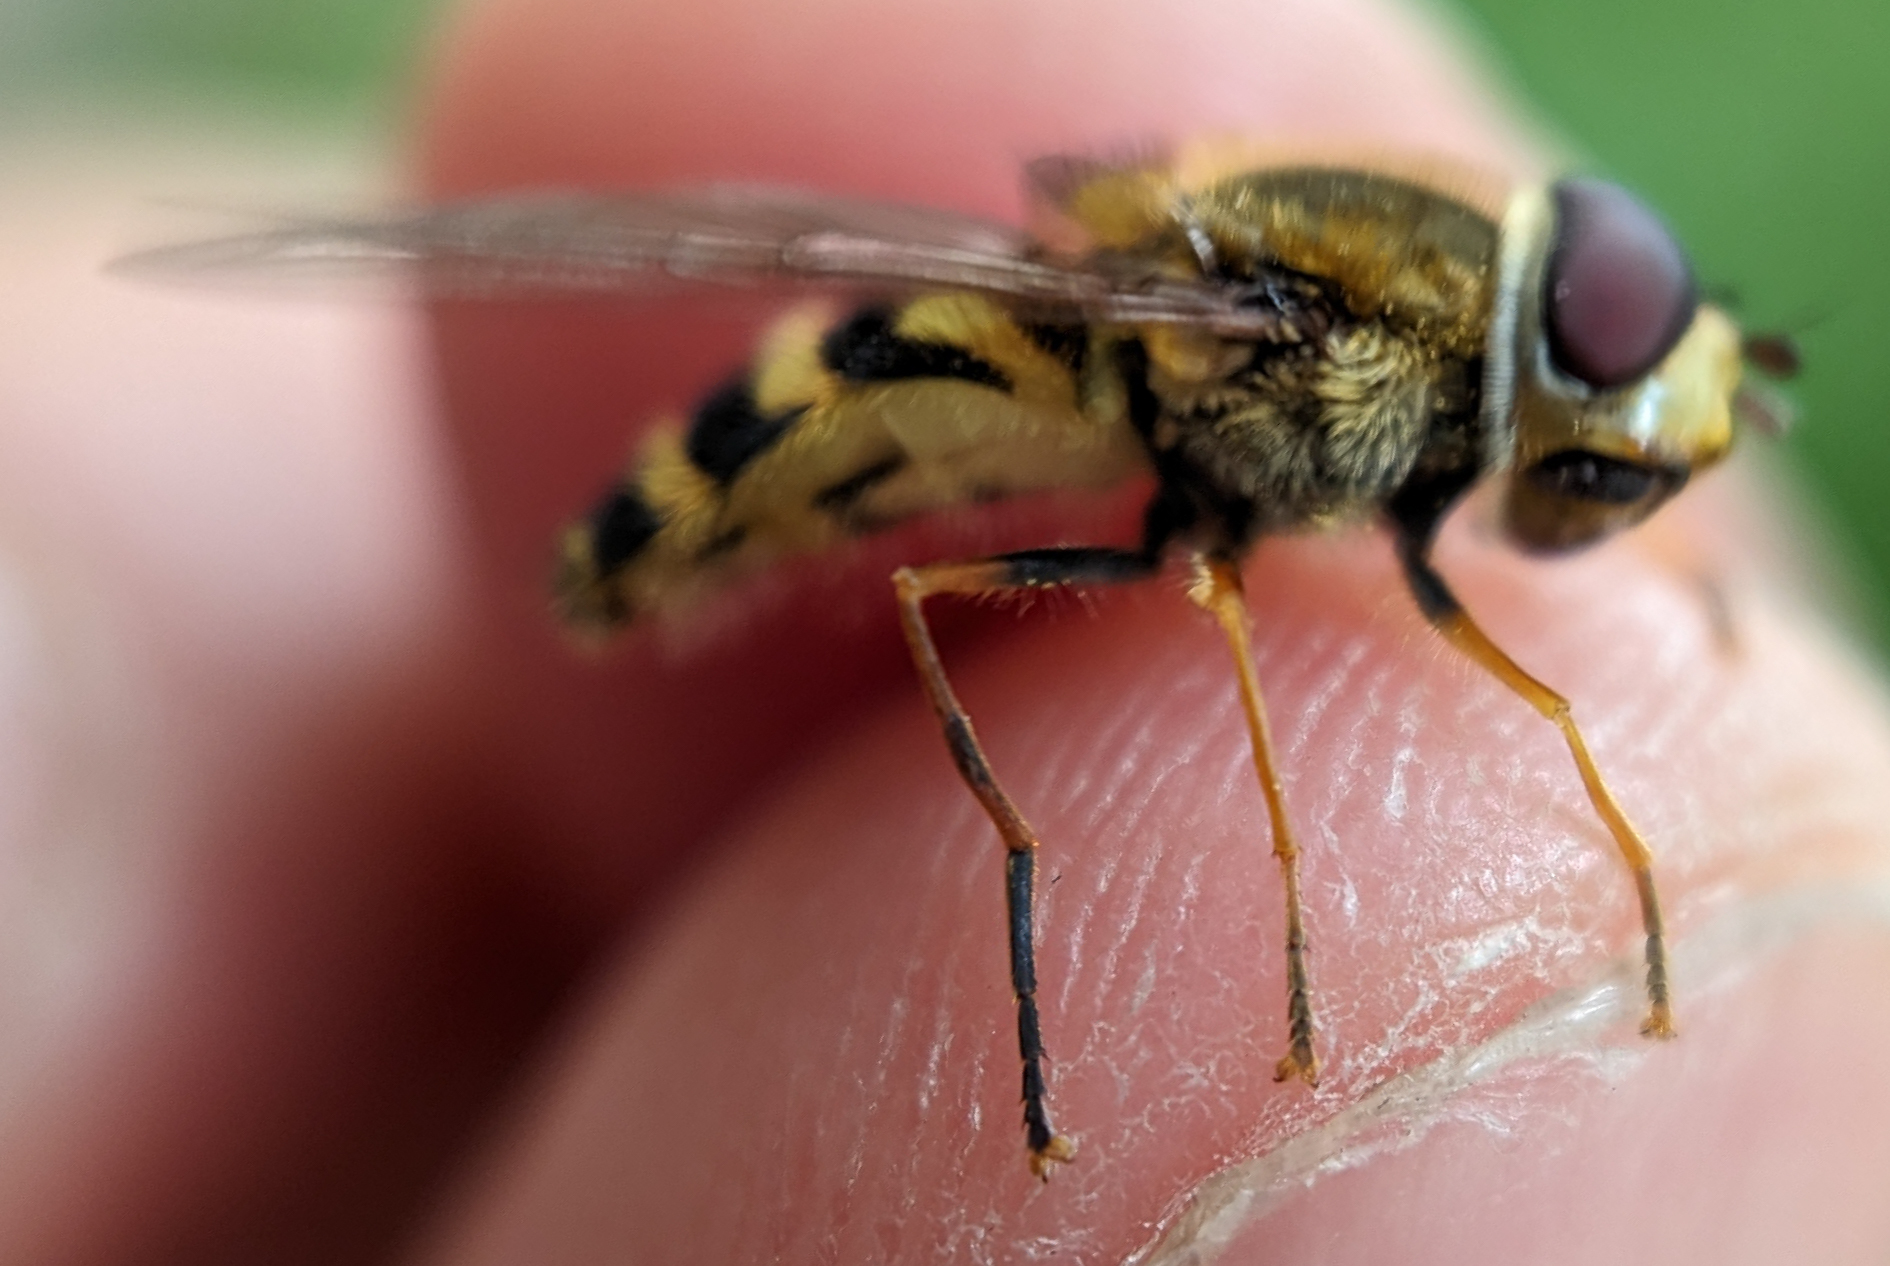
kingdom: Animalia
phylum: Arthropoda
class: Insecta
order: Diptera
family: Syrphidae
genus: Syrphus
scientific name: Syrphus
